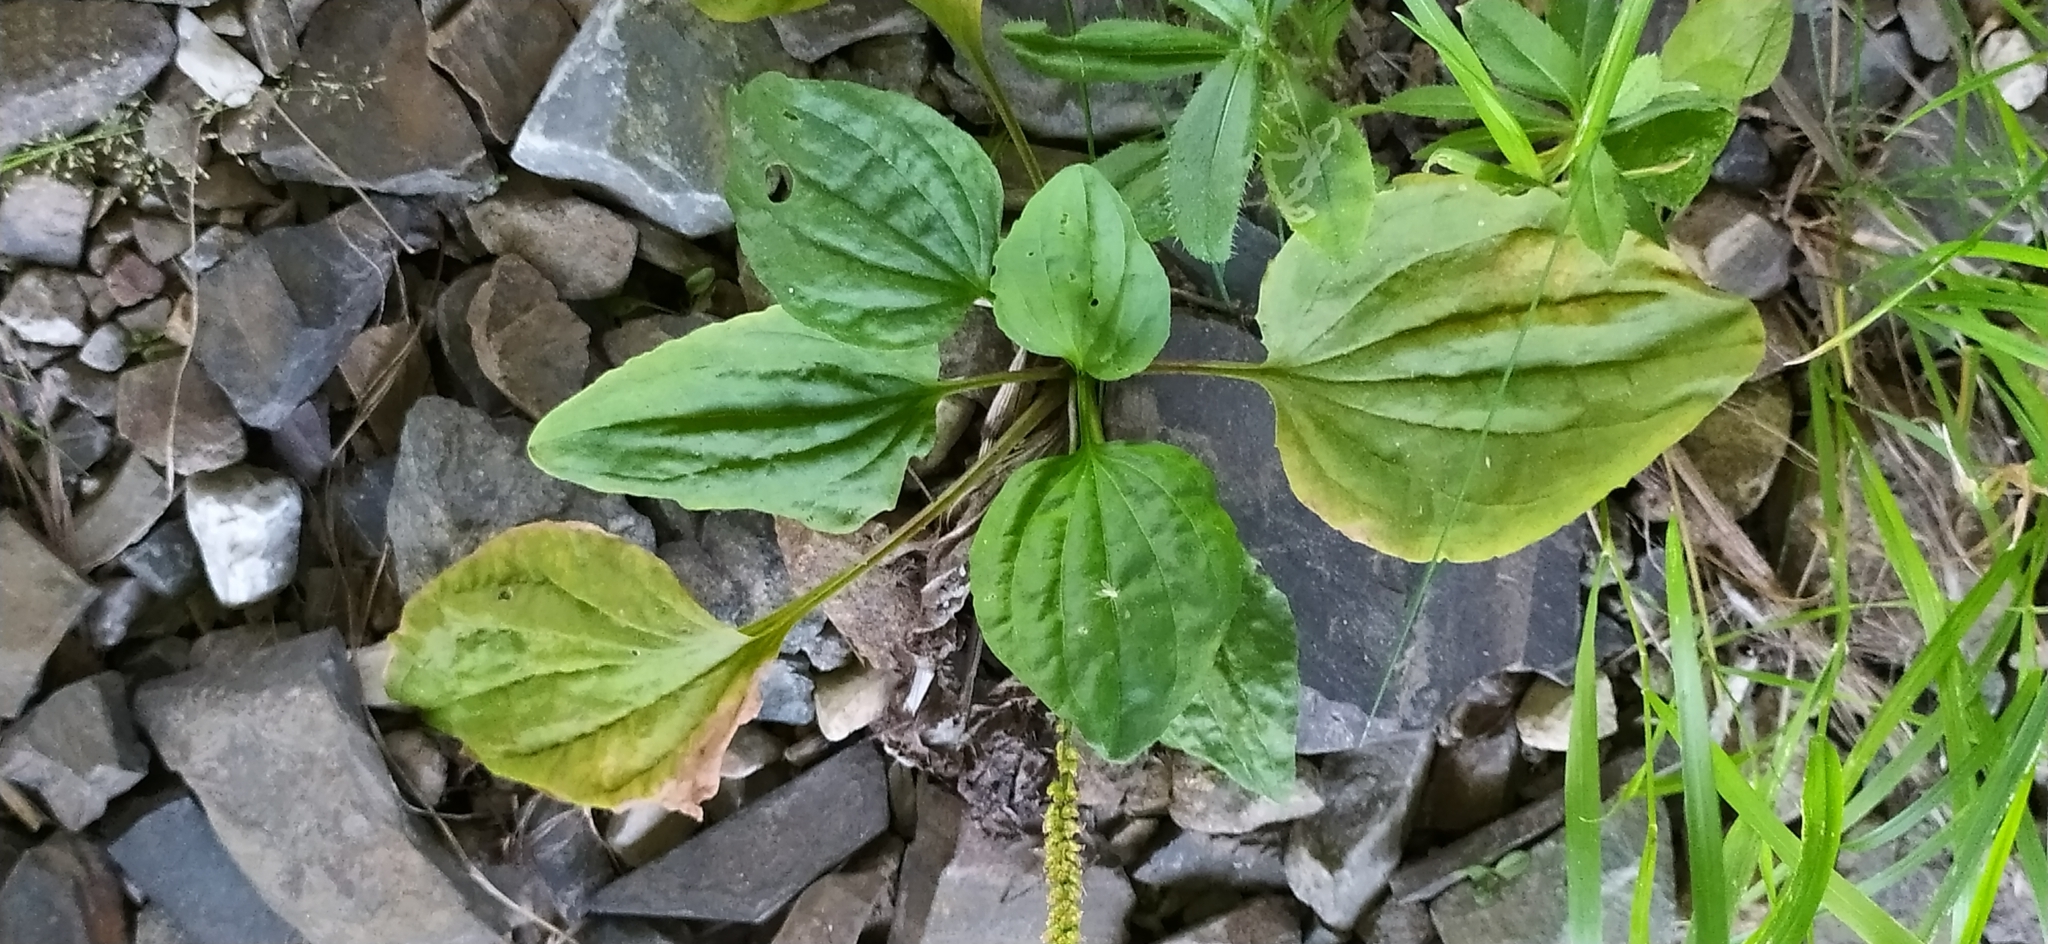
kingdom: Plantae
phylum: Tracheophyta
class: Magnoliopsida
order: Lamiales
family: Plantaginaceae
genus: Plantago
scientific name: Plantago major
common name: Common plantain
